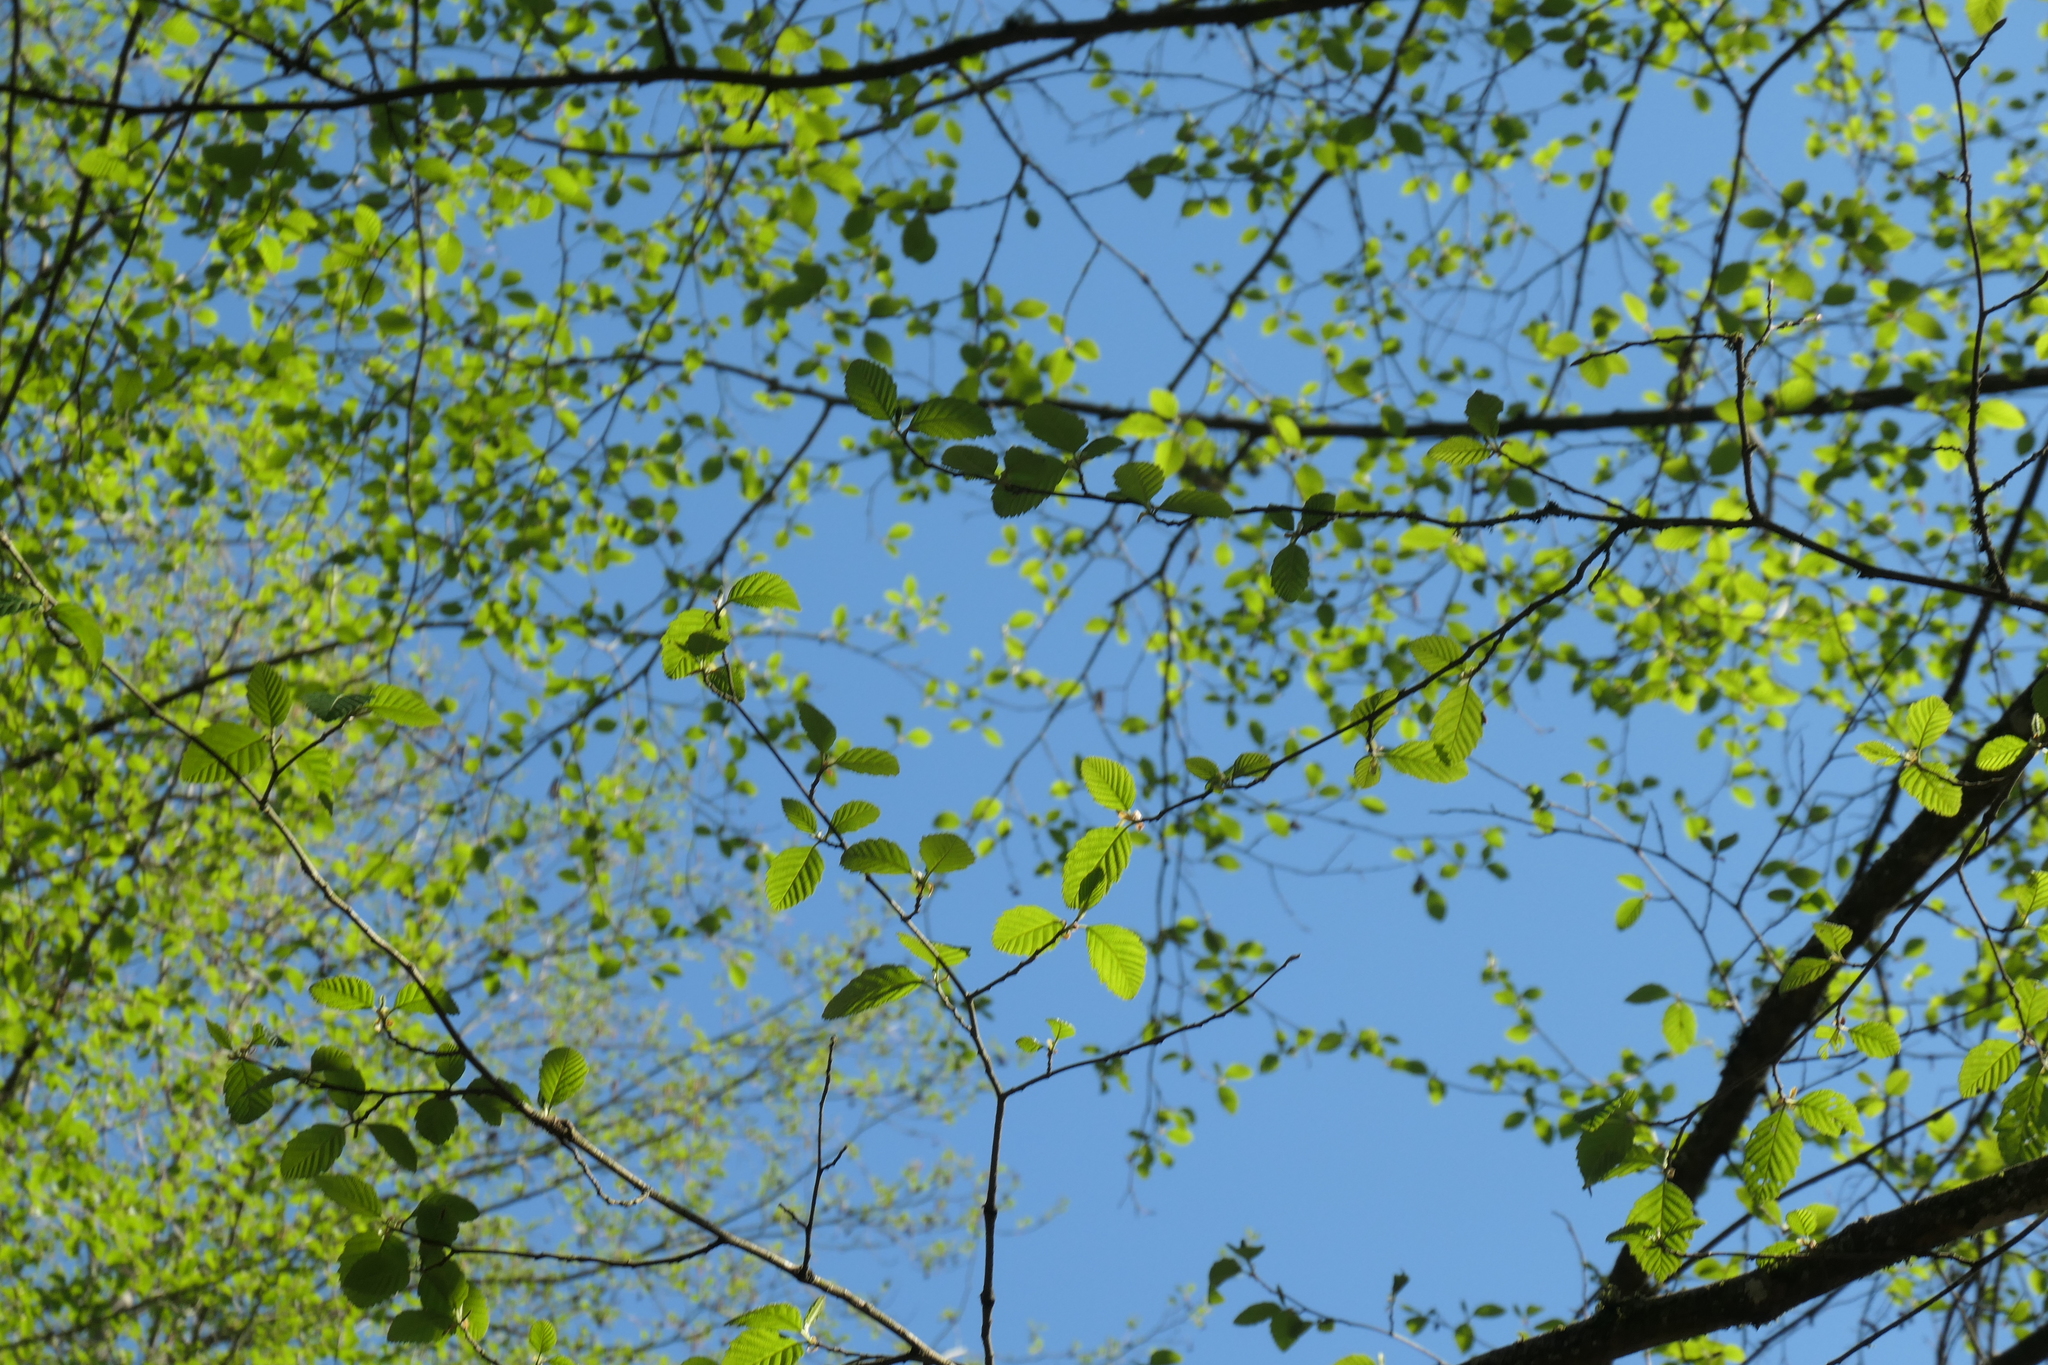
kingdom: Plantae
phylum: Tracheophyta
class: Magnoliopsida
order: Fagales
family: Betulaceae
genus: Alnus
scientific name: Alnus rubra
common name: Red alder
